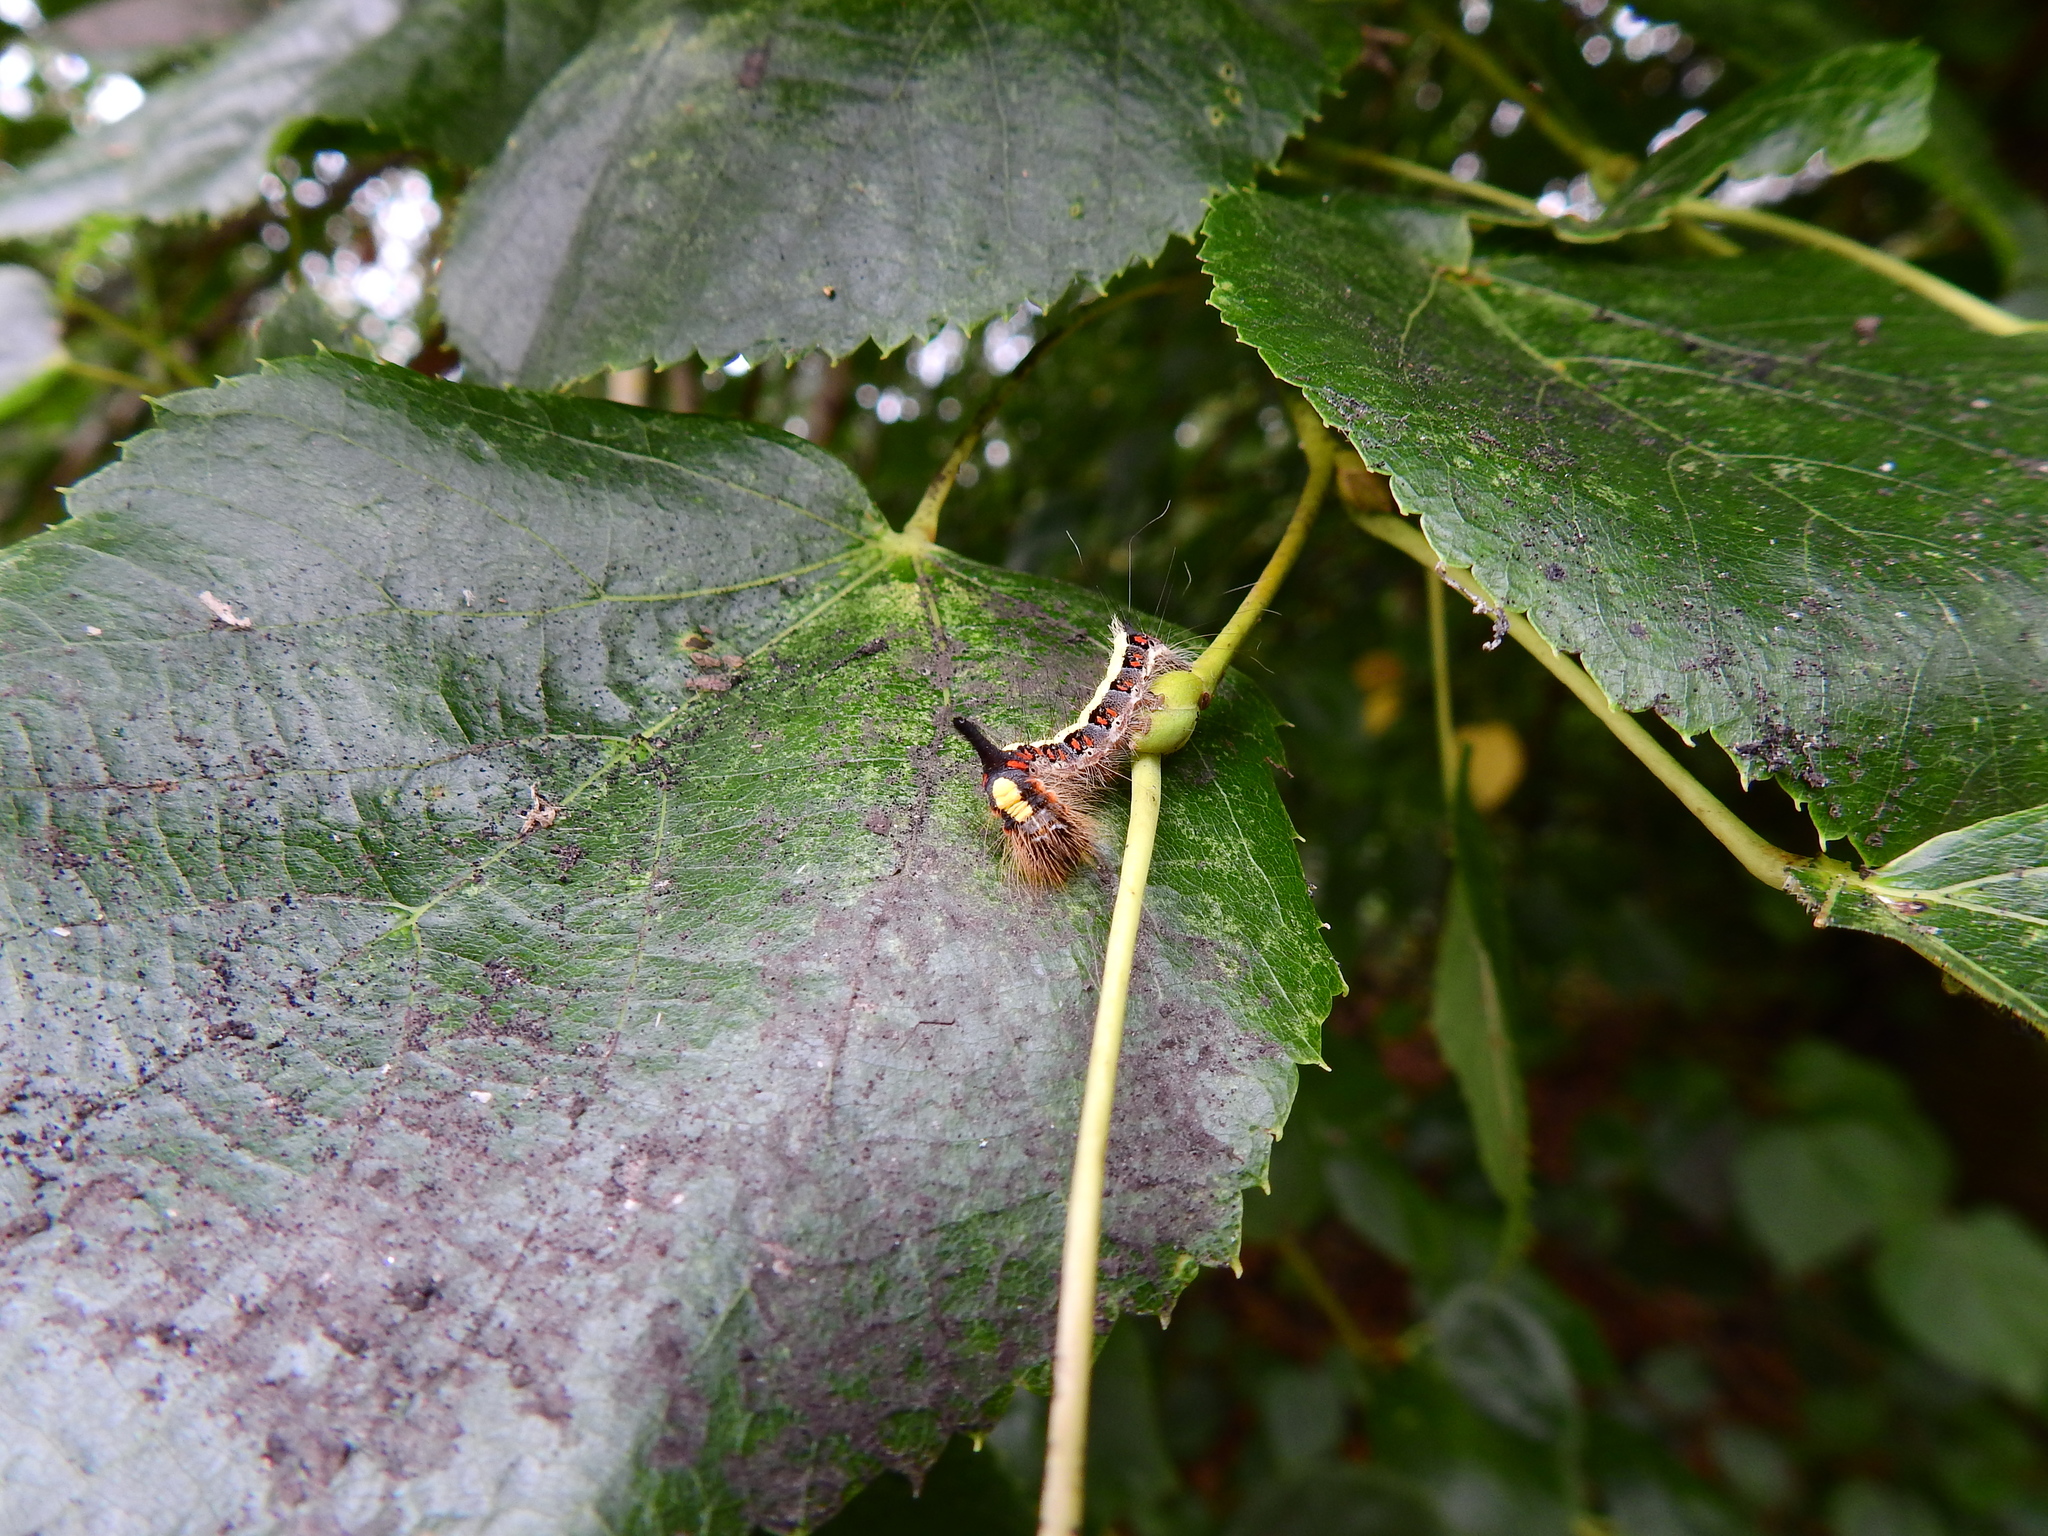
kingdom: Animalia
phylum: Arthropoda
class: Insecta
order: Lepidoptera
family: Noctuidae
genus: Acronicta
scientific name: Acronicta psi
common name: Grey dagger
